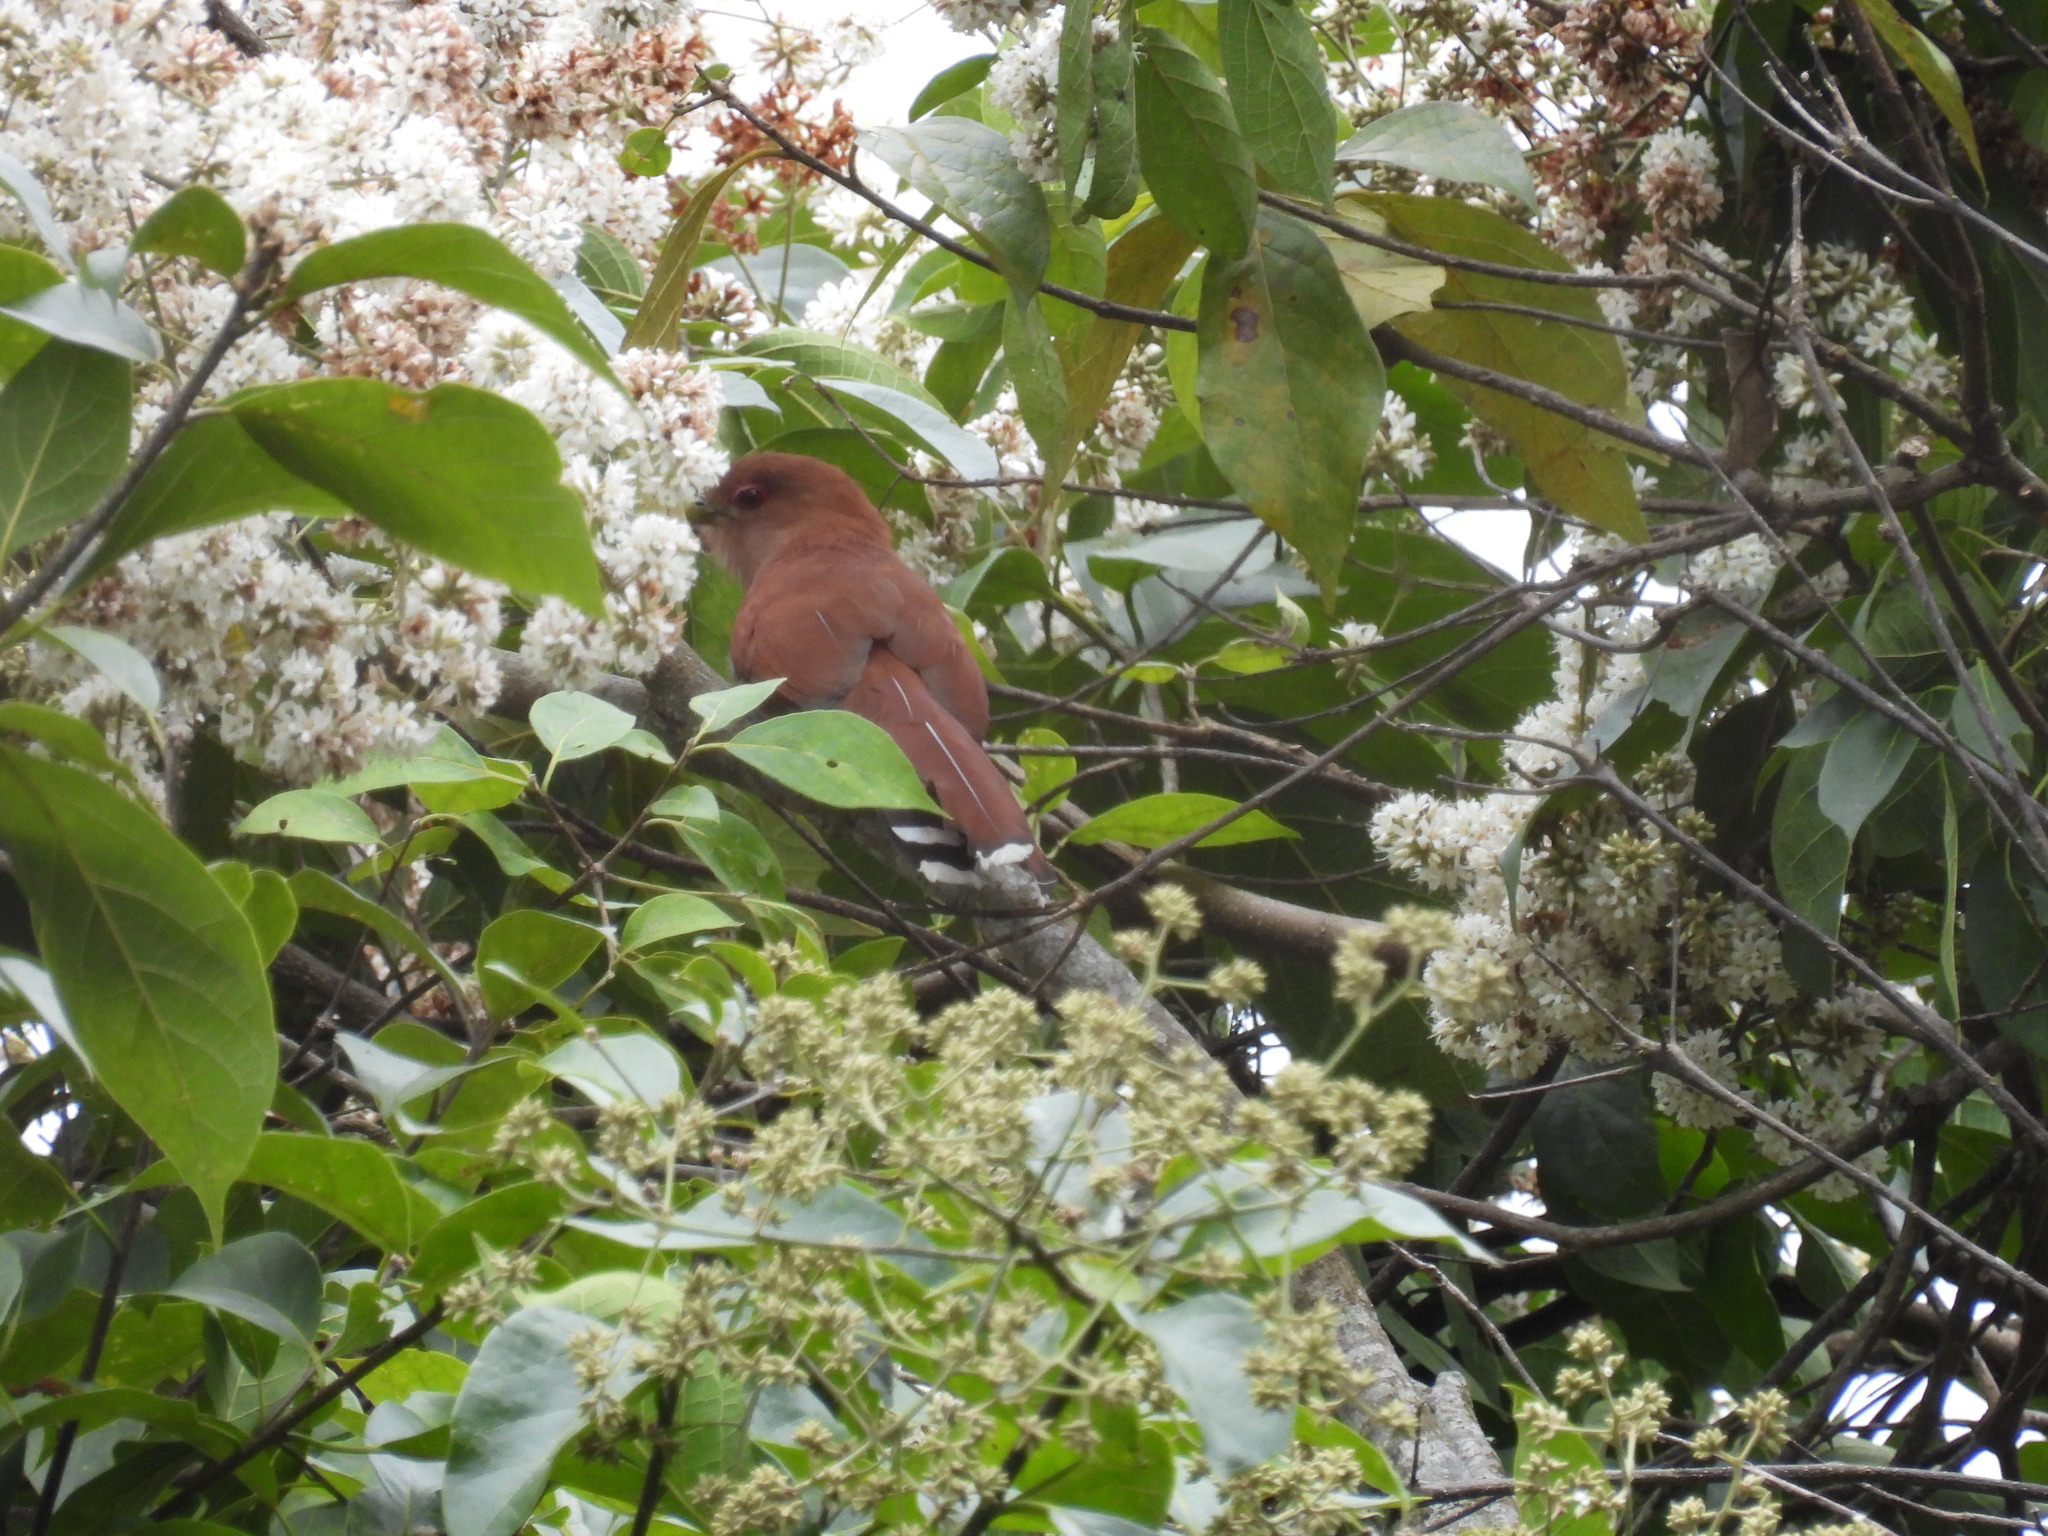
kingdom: Animalia
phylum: Chordata
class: Aves
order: Cuculiformes
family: Cuculidae
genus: Piaya
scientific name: Piaya cayana
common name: Squirrel cuckoo
